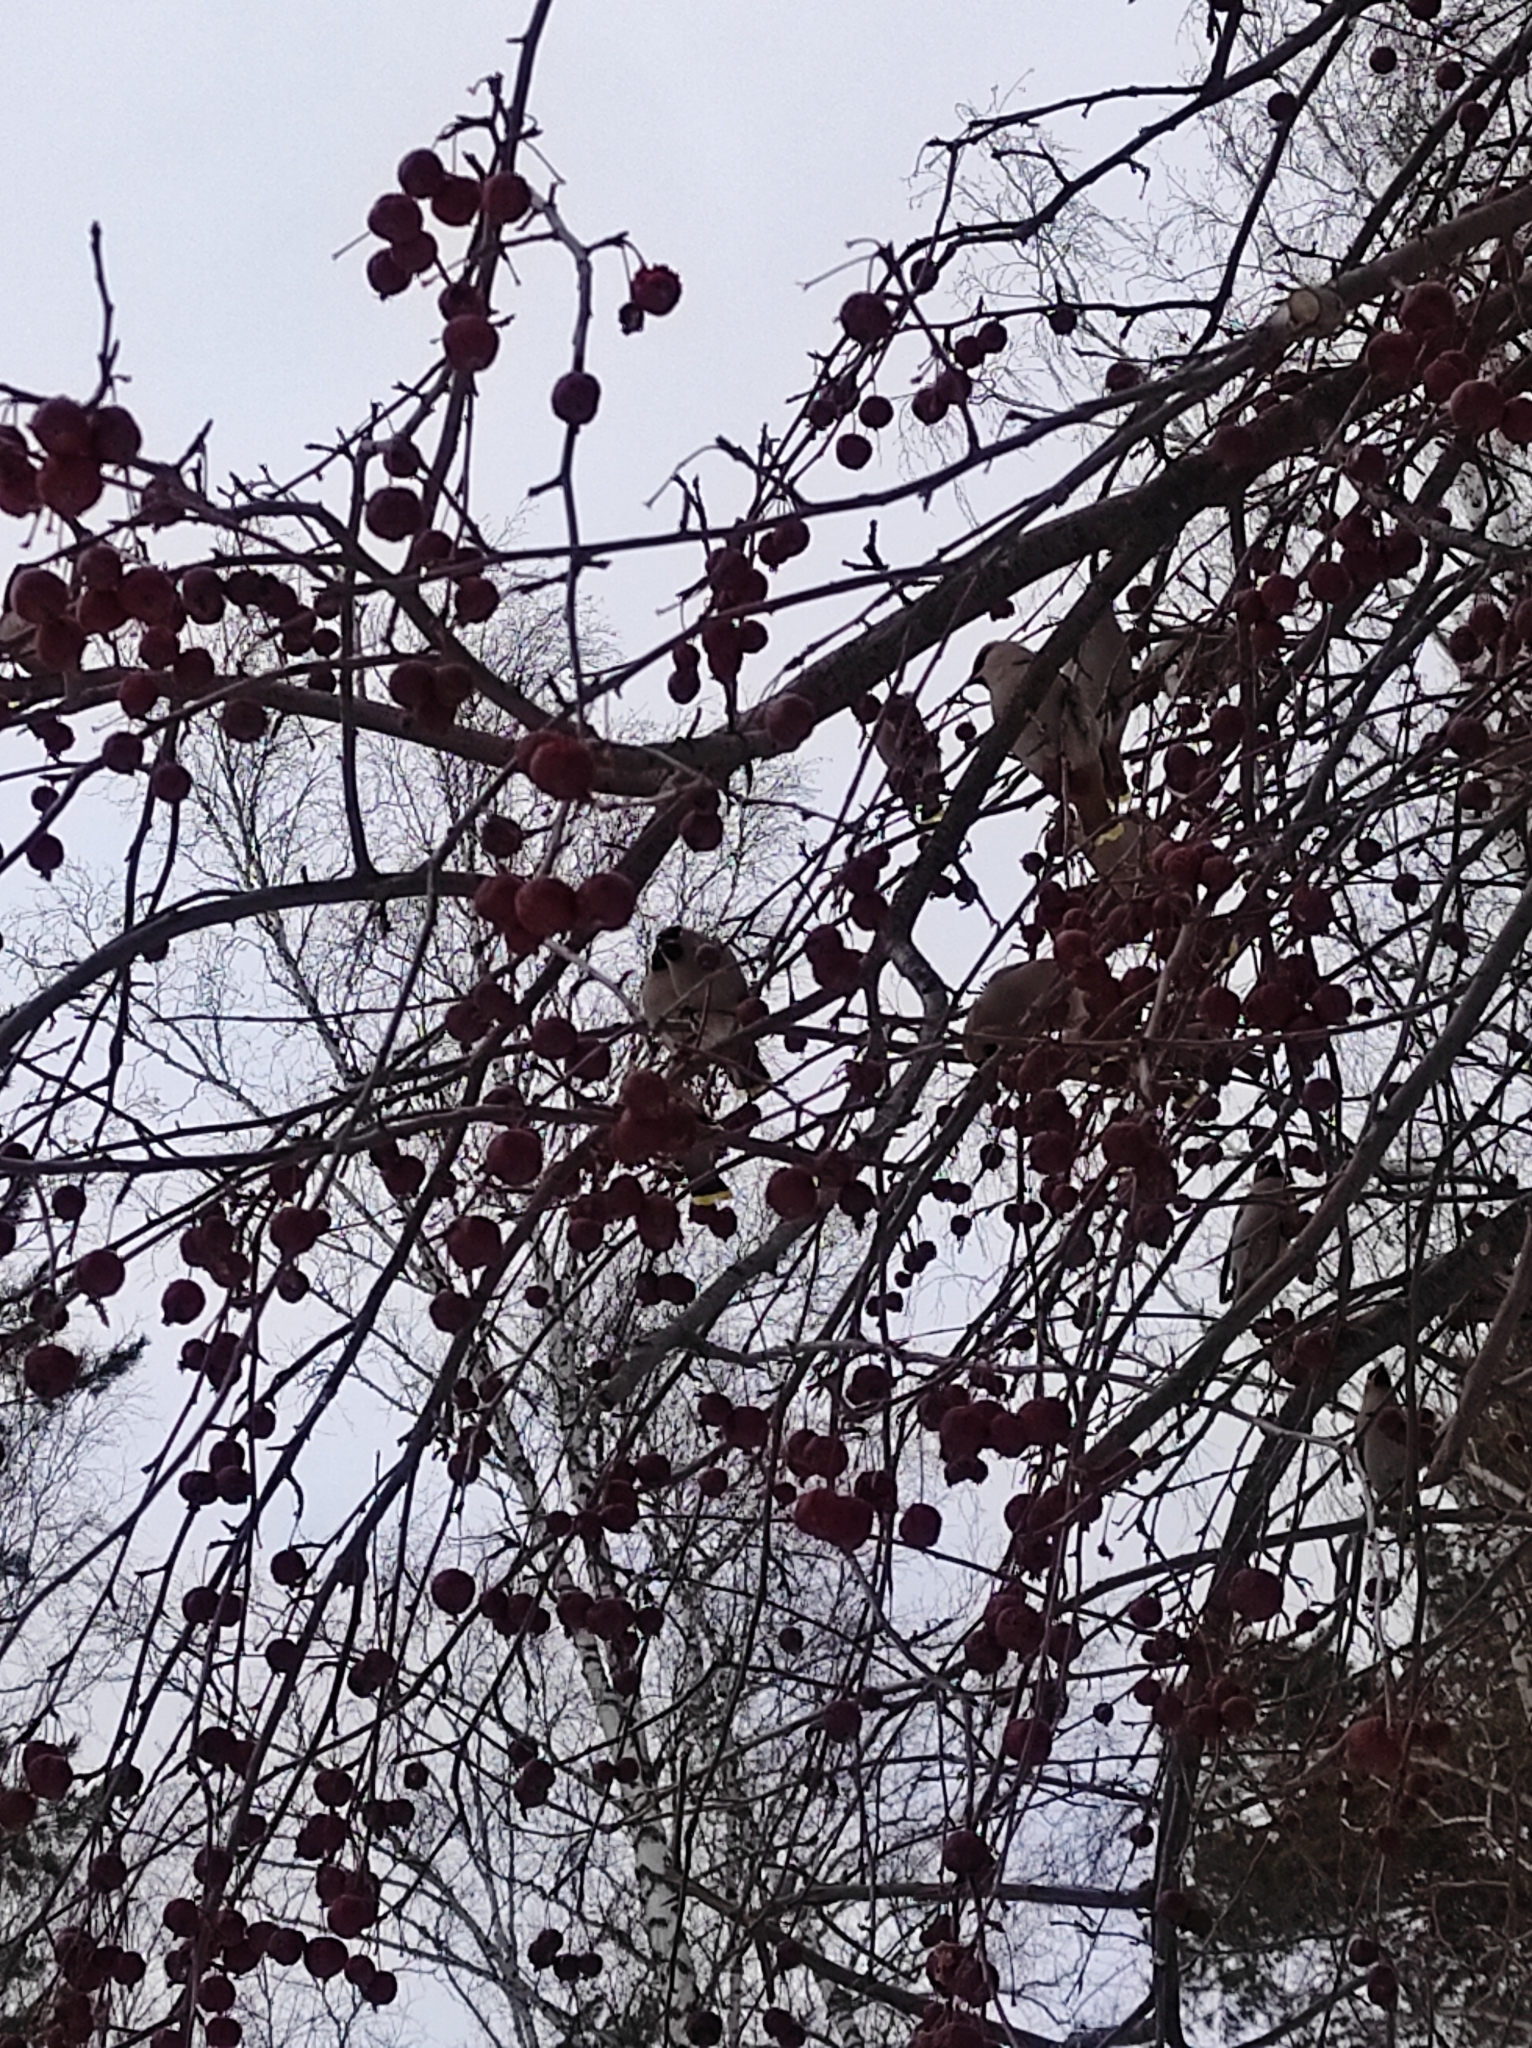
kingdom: Animalia
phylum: Chordata
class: Aves
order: Passeriformes
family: Bombycillidae
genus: Bombycilla
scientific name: Bombycilla garrulus
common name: Bohemian waxwing
